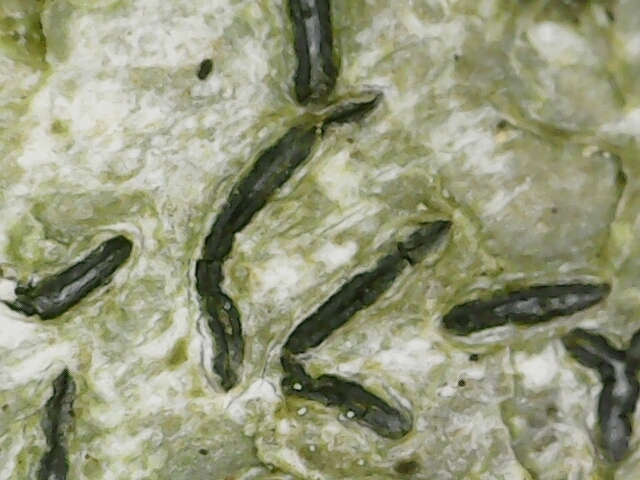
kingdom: Fungi
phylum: Ascomycota
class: Lecanoromycetes
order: Ostropales
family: Graphidaceae
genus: Graphis
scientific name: Graphis scripta
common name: Script lichen
